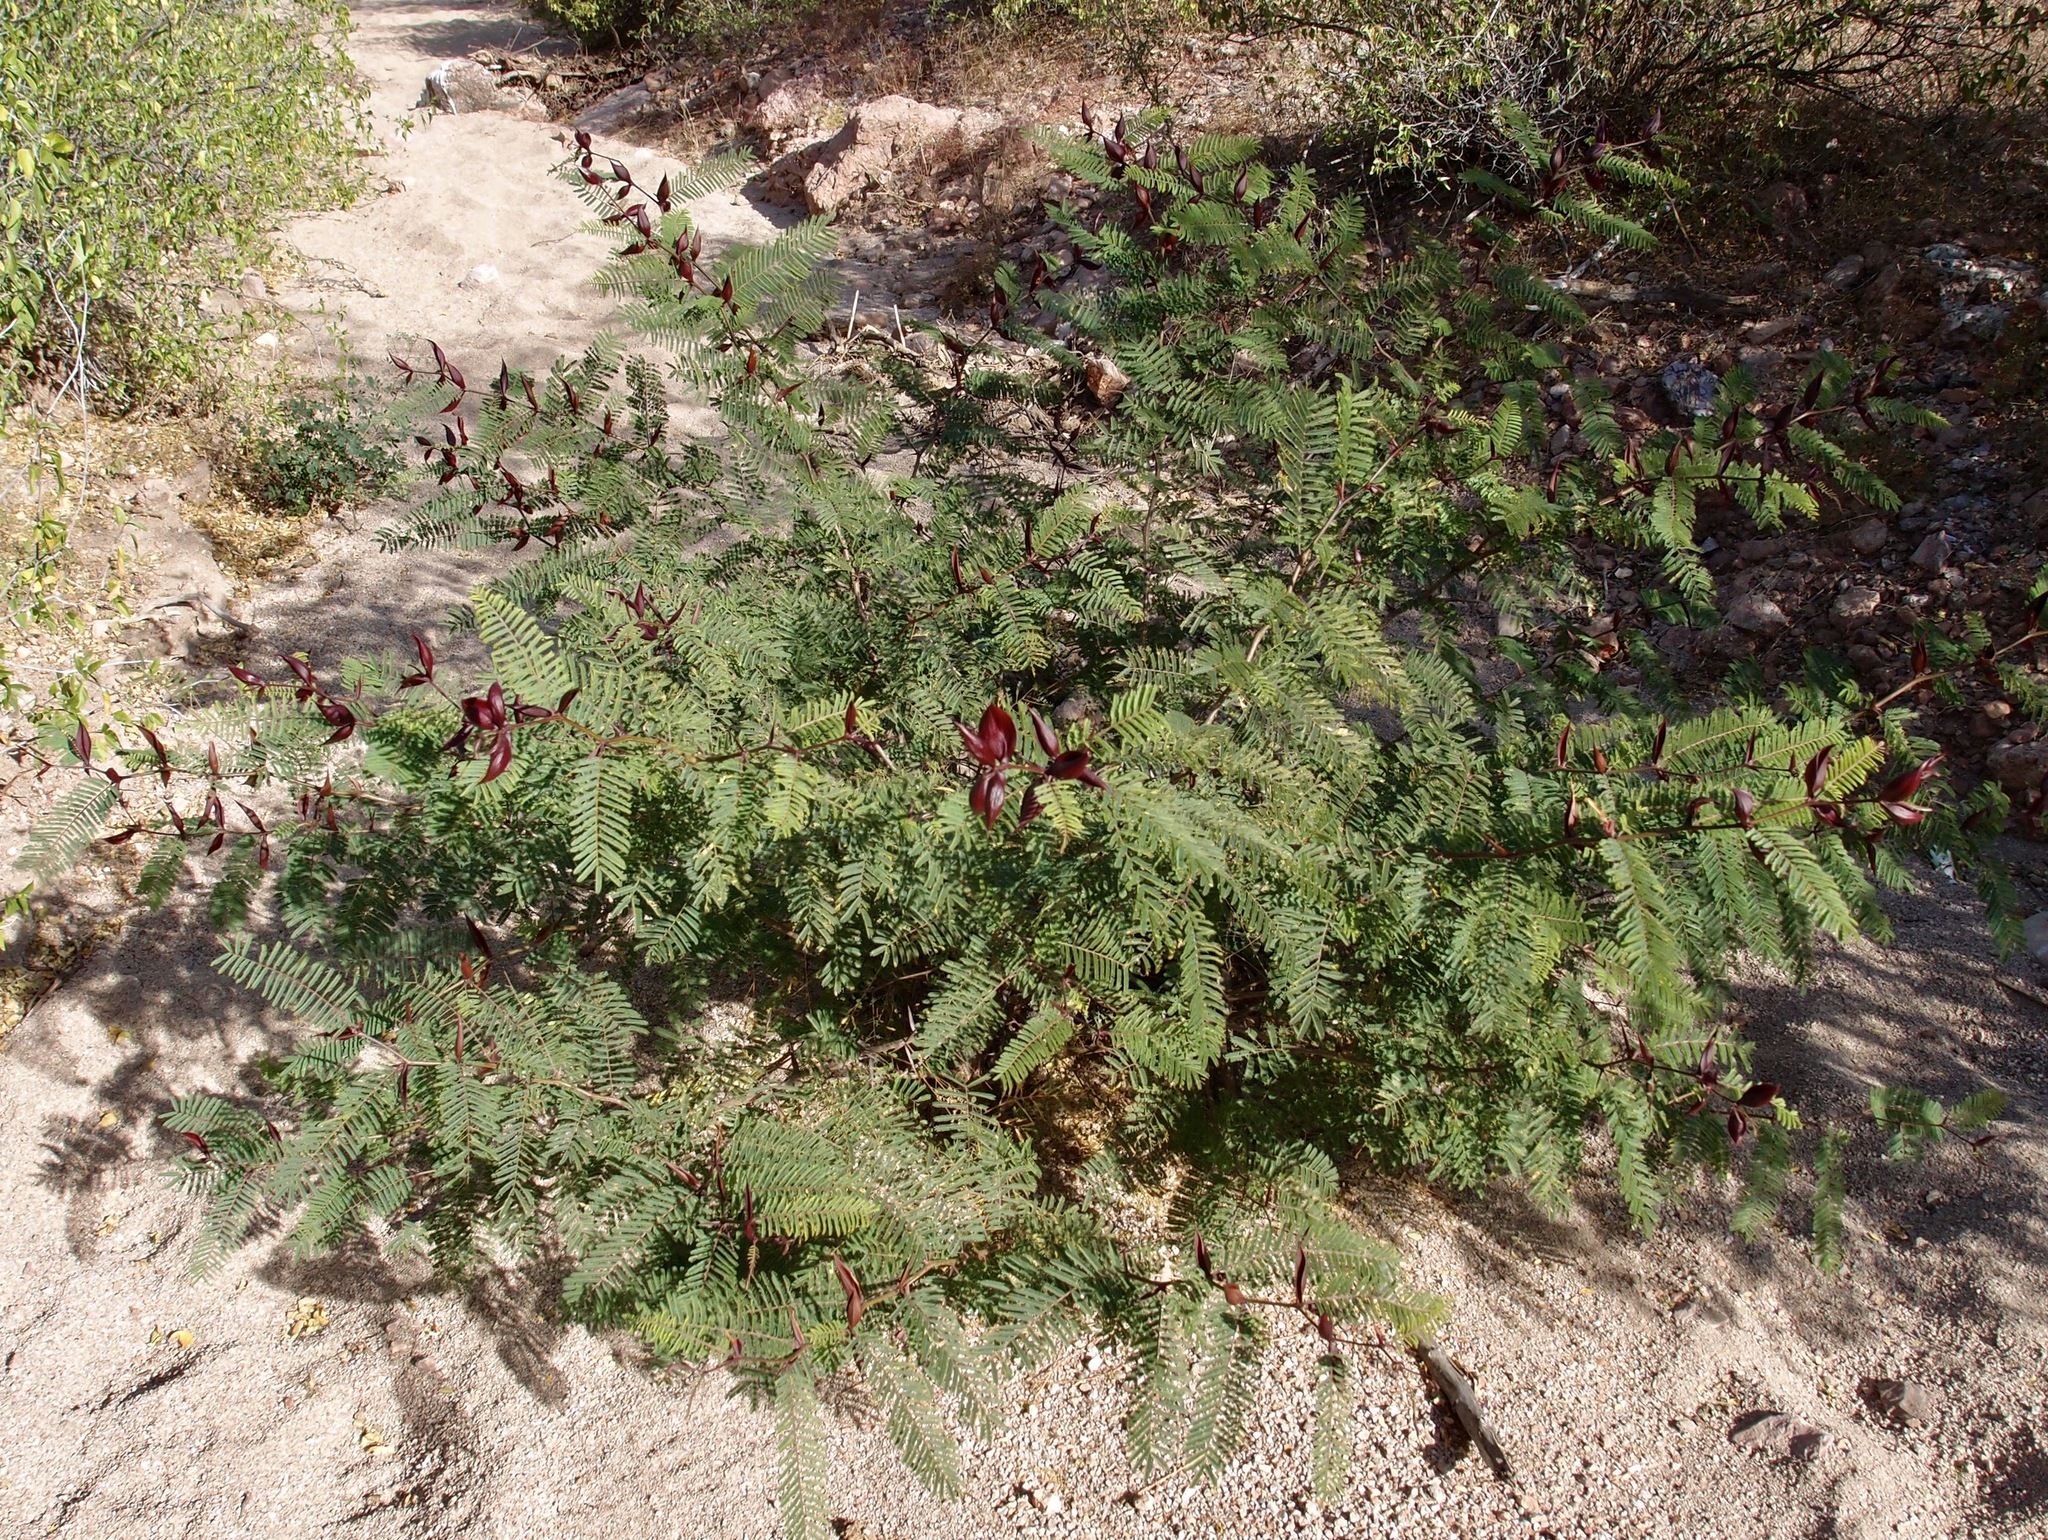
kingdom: Plantae
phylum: Tracheophyta
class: Magnoliopsida
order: Fabales
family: Fabaceae
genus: Vachellia
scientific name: Vachellia campechiana
